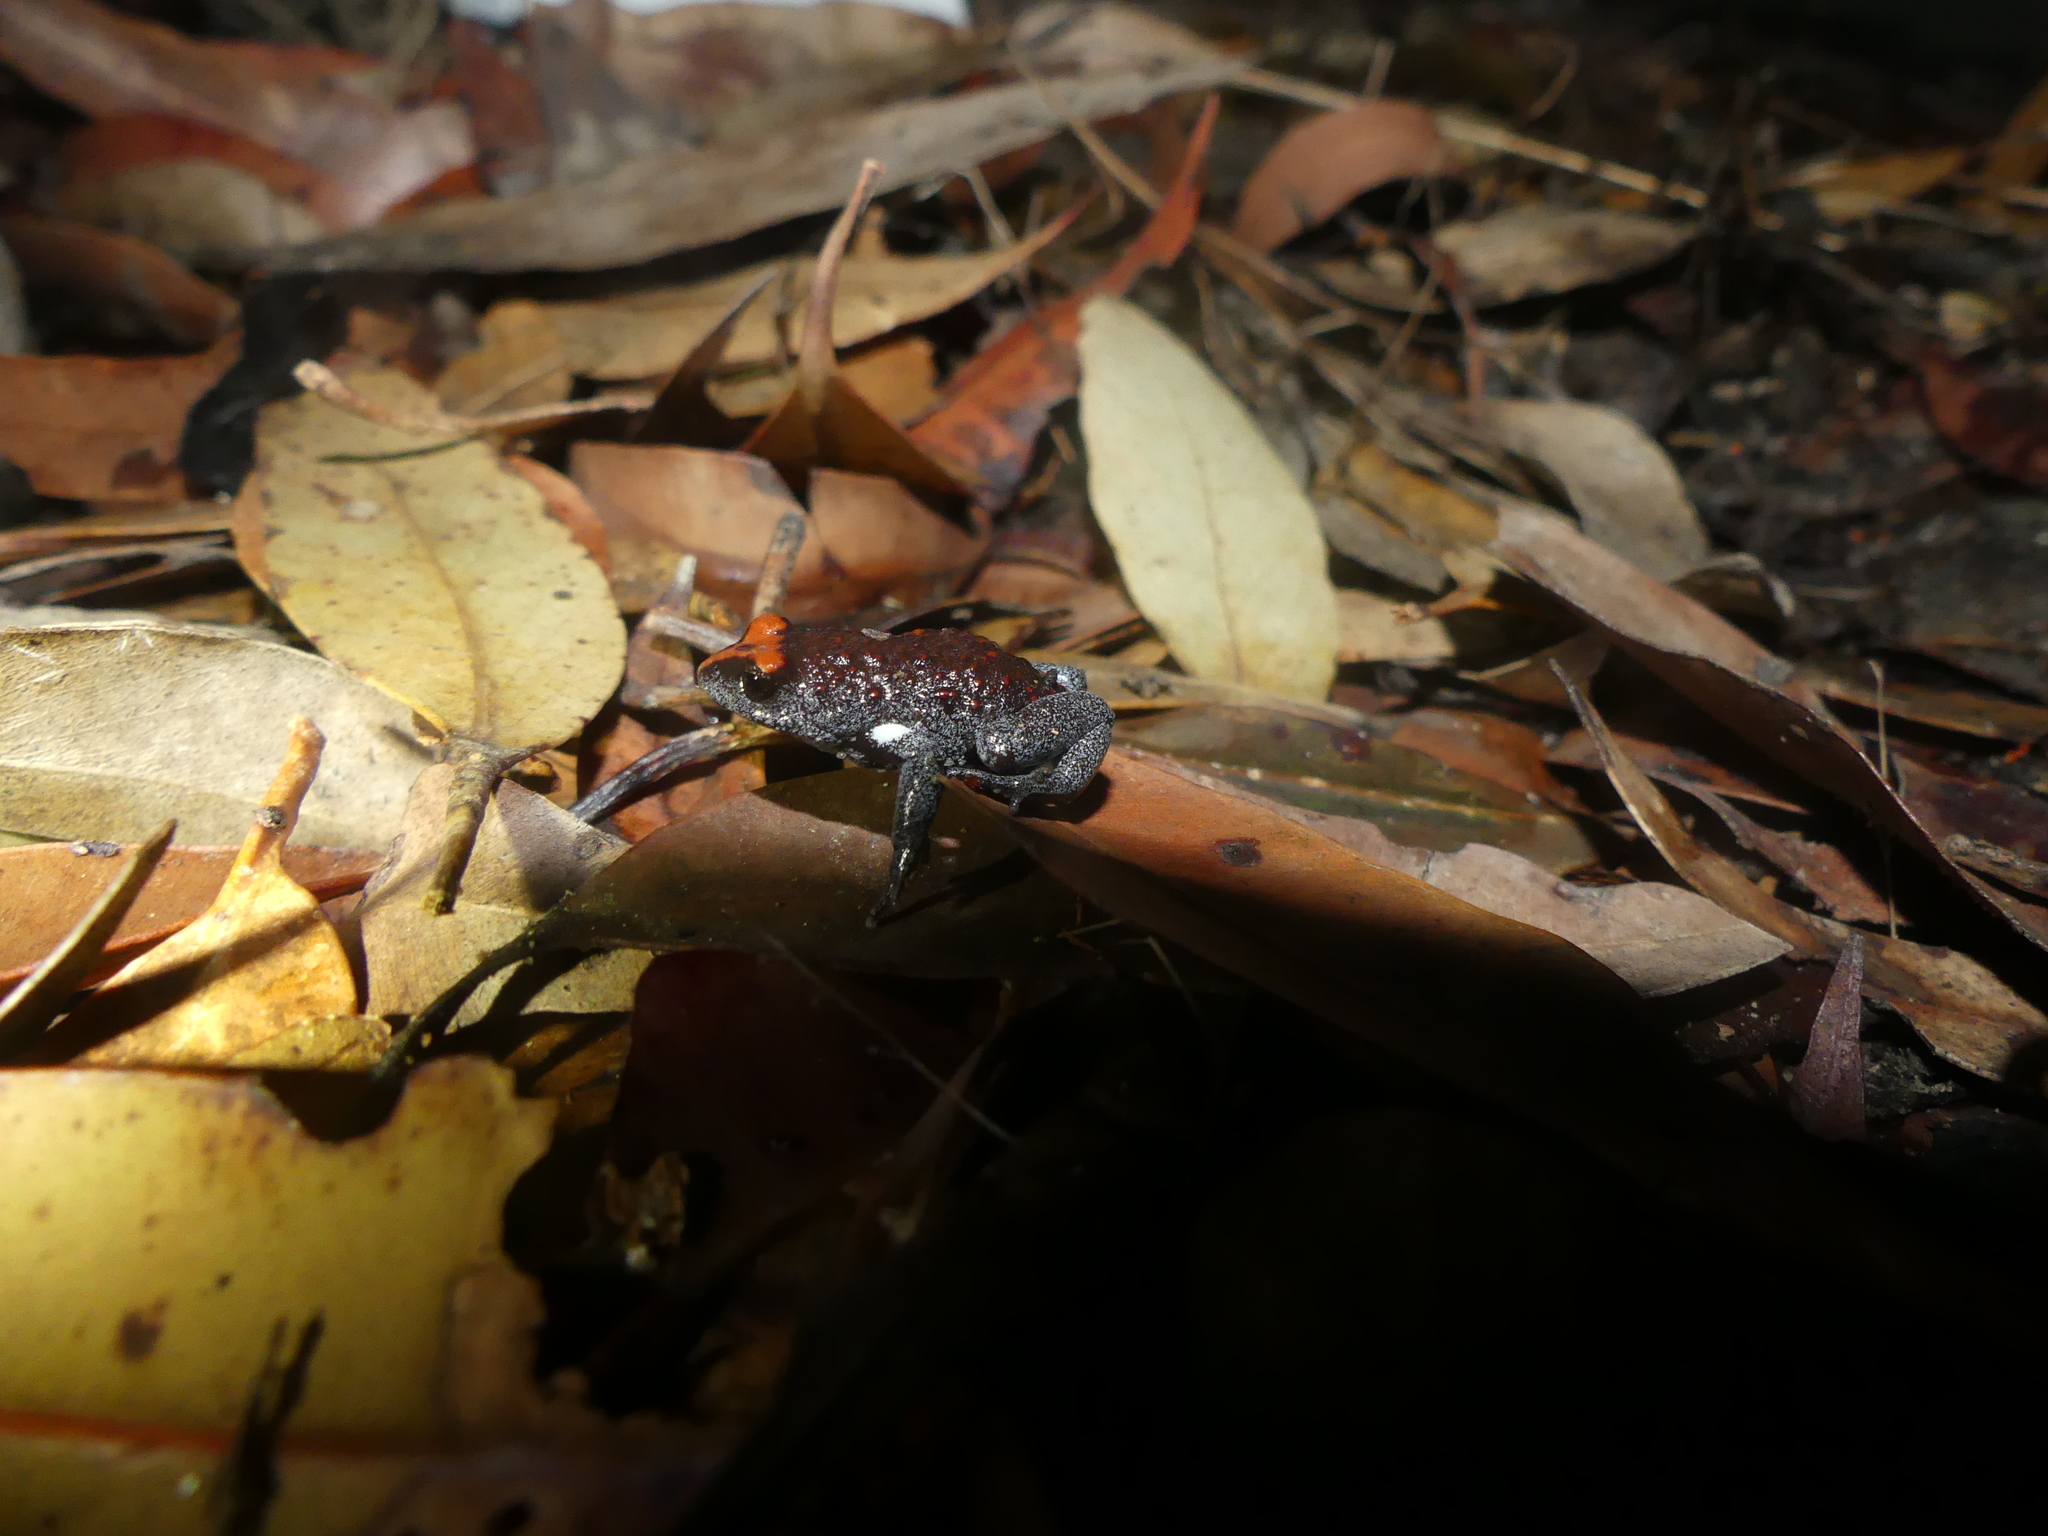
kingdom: Animalia
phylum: Chordata
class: Amphibia
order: Anura
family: Myobatrachidae
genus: Pseudophryne
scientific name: Pseudophryne australis
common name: Red-crowned toadlet
